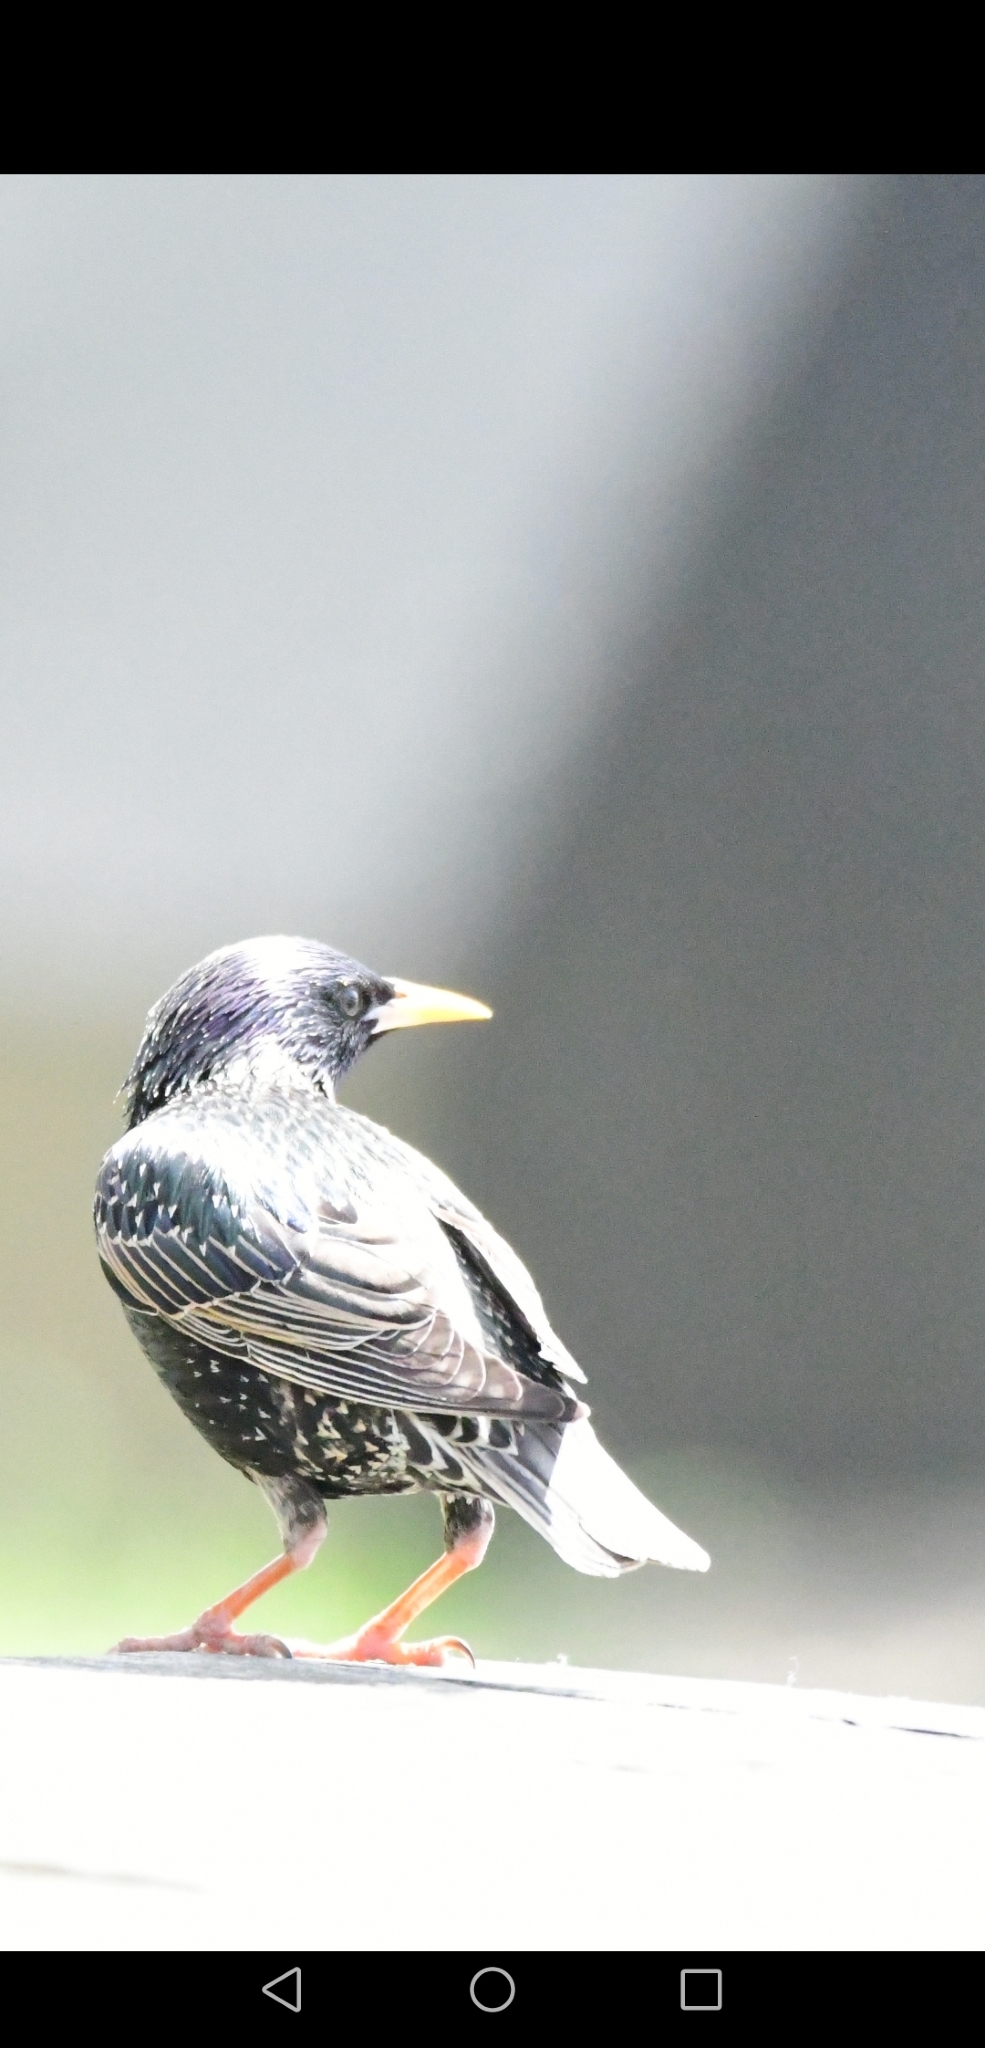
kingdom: Animalia
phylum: Chordata
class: Aves
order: Passeriformes
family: Sturnidae
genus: Sturnus
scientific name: Sturnus vulgaris
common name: Common starling
